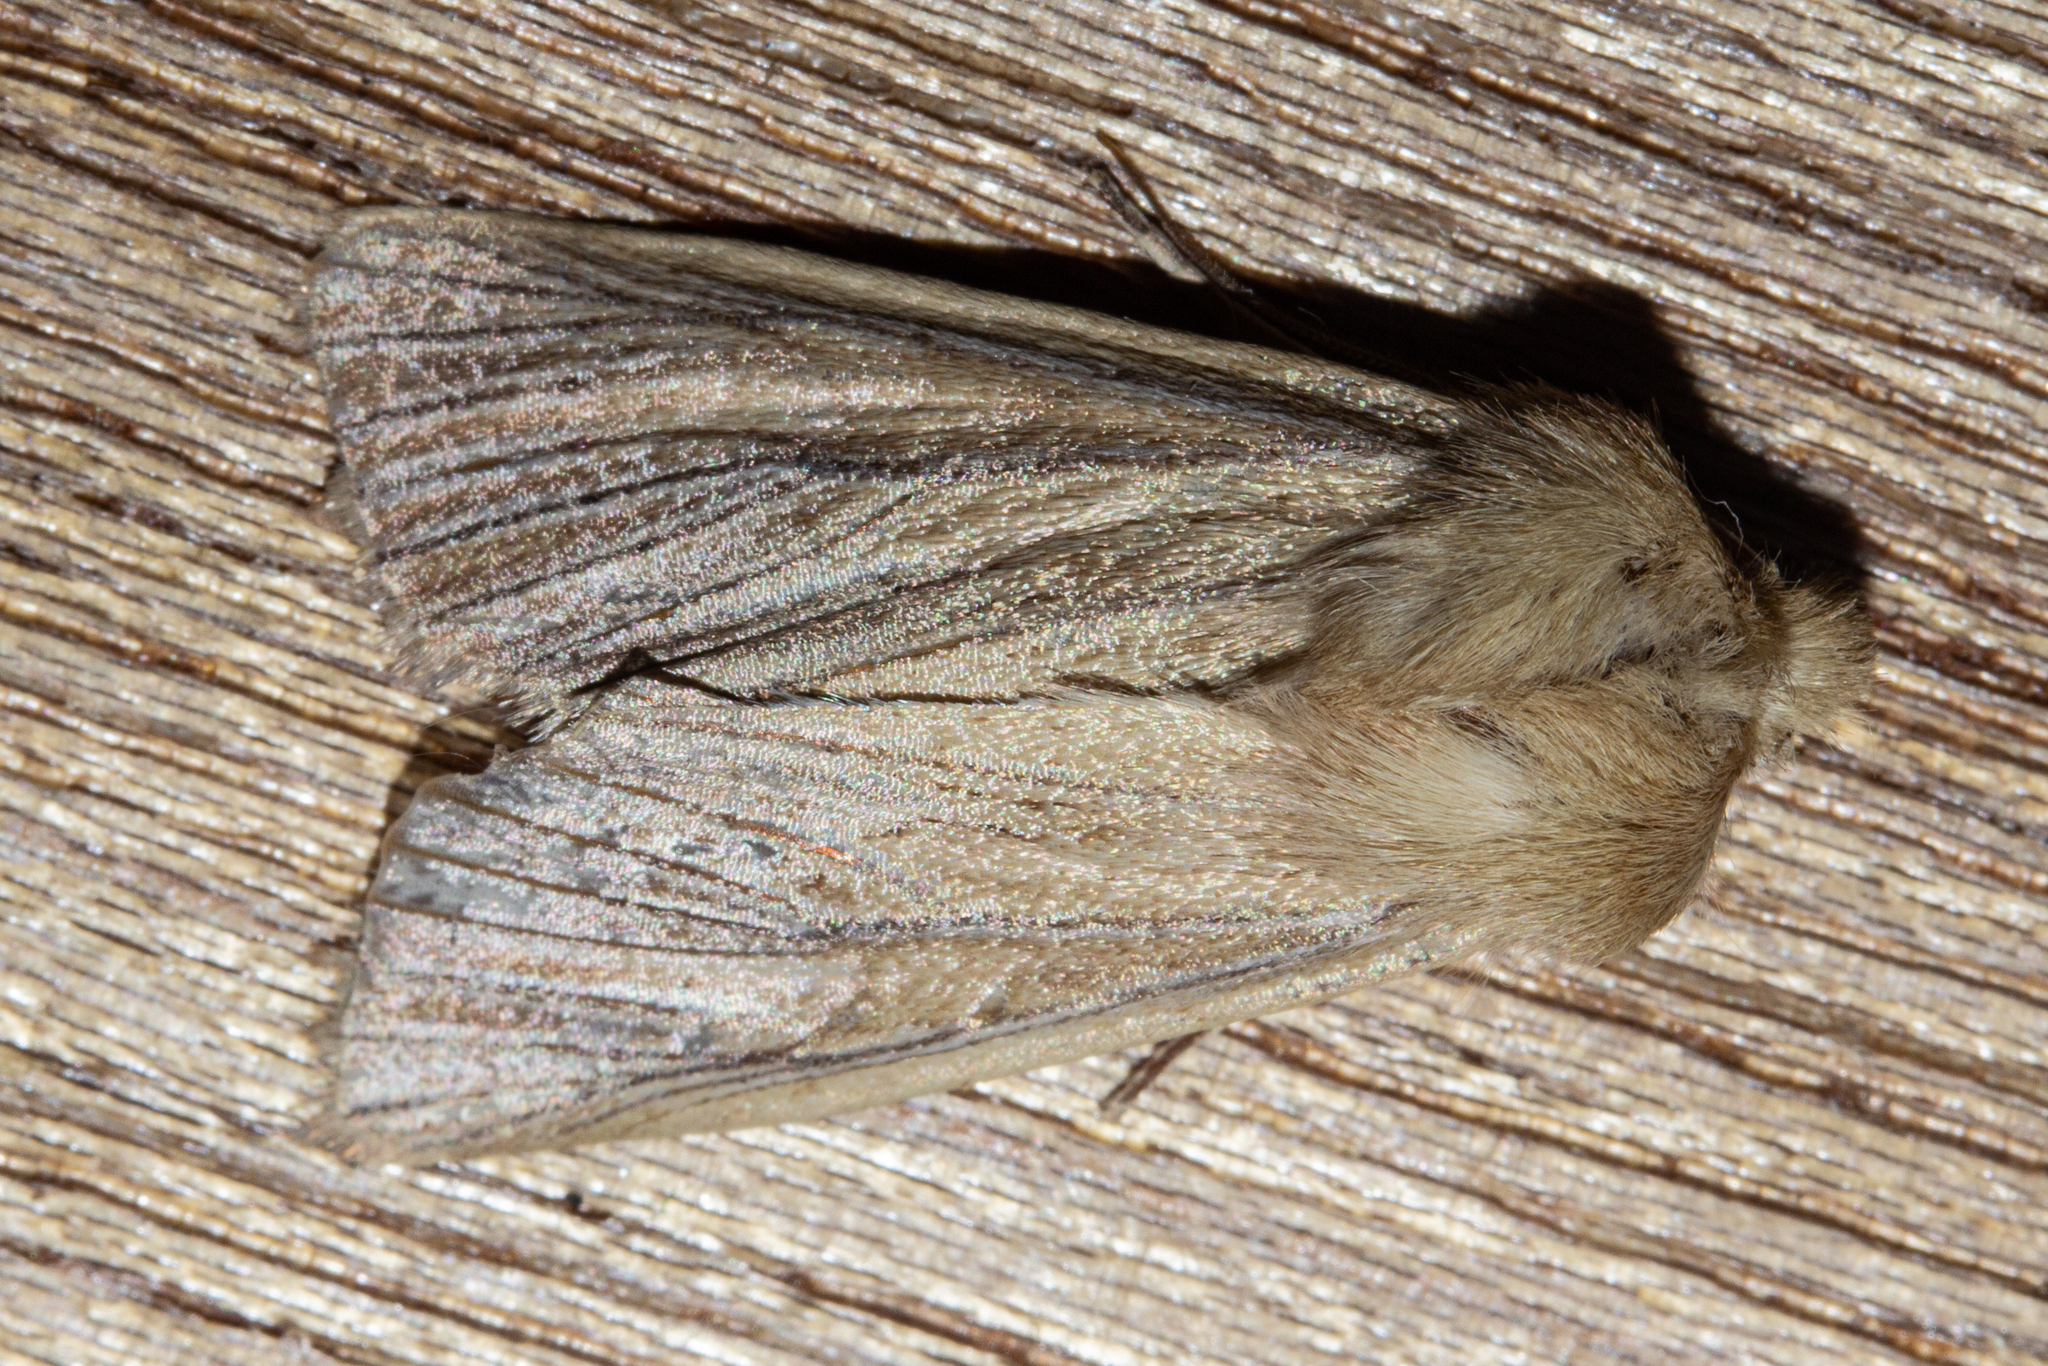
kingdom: Animalia
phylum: Arthropoda
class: Insecta
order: Lepidoptera
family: Noctuidae
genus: Ichneutica
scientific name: Ichneutica arotis
